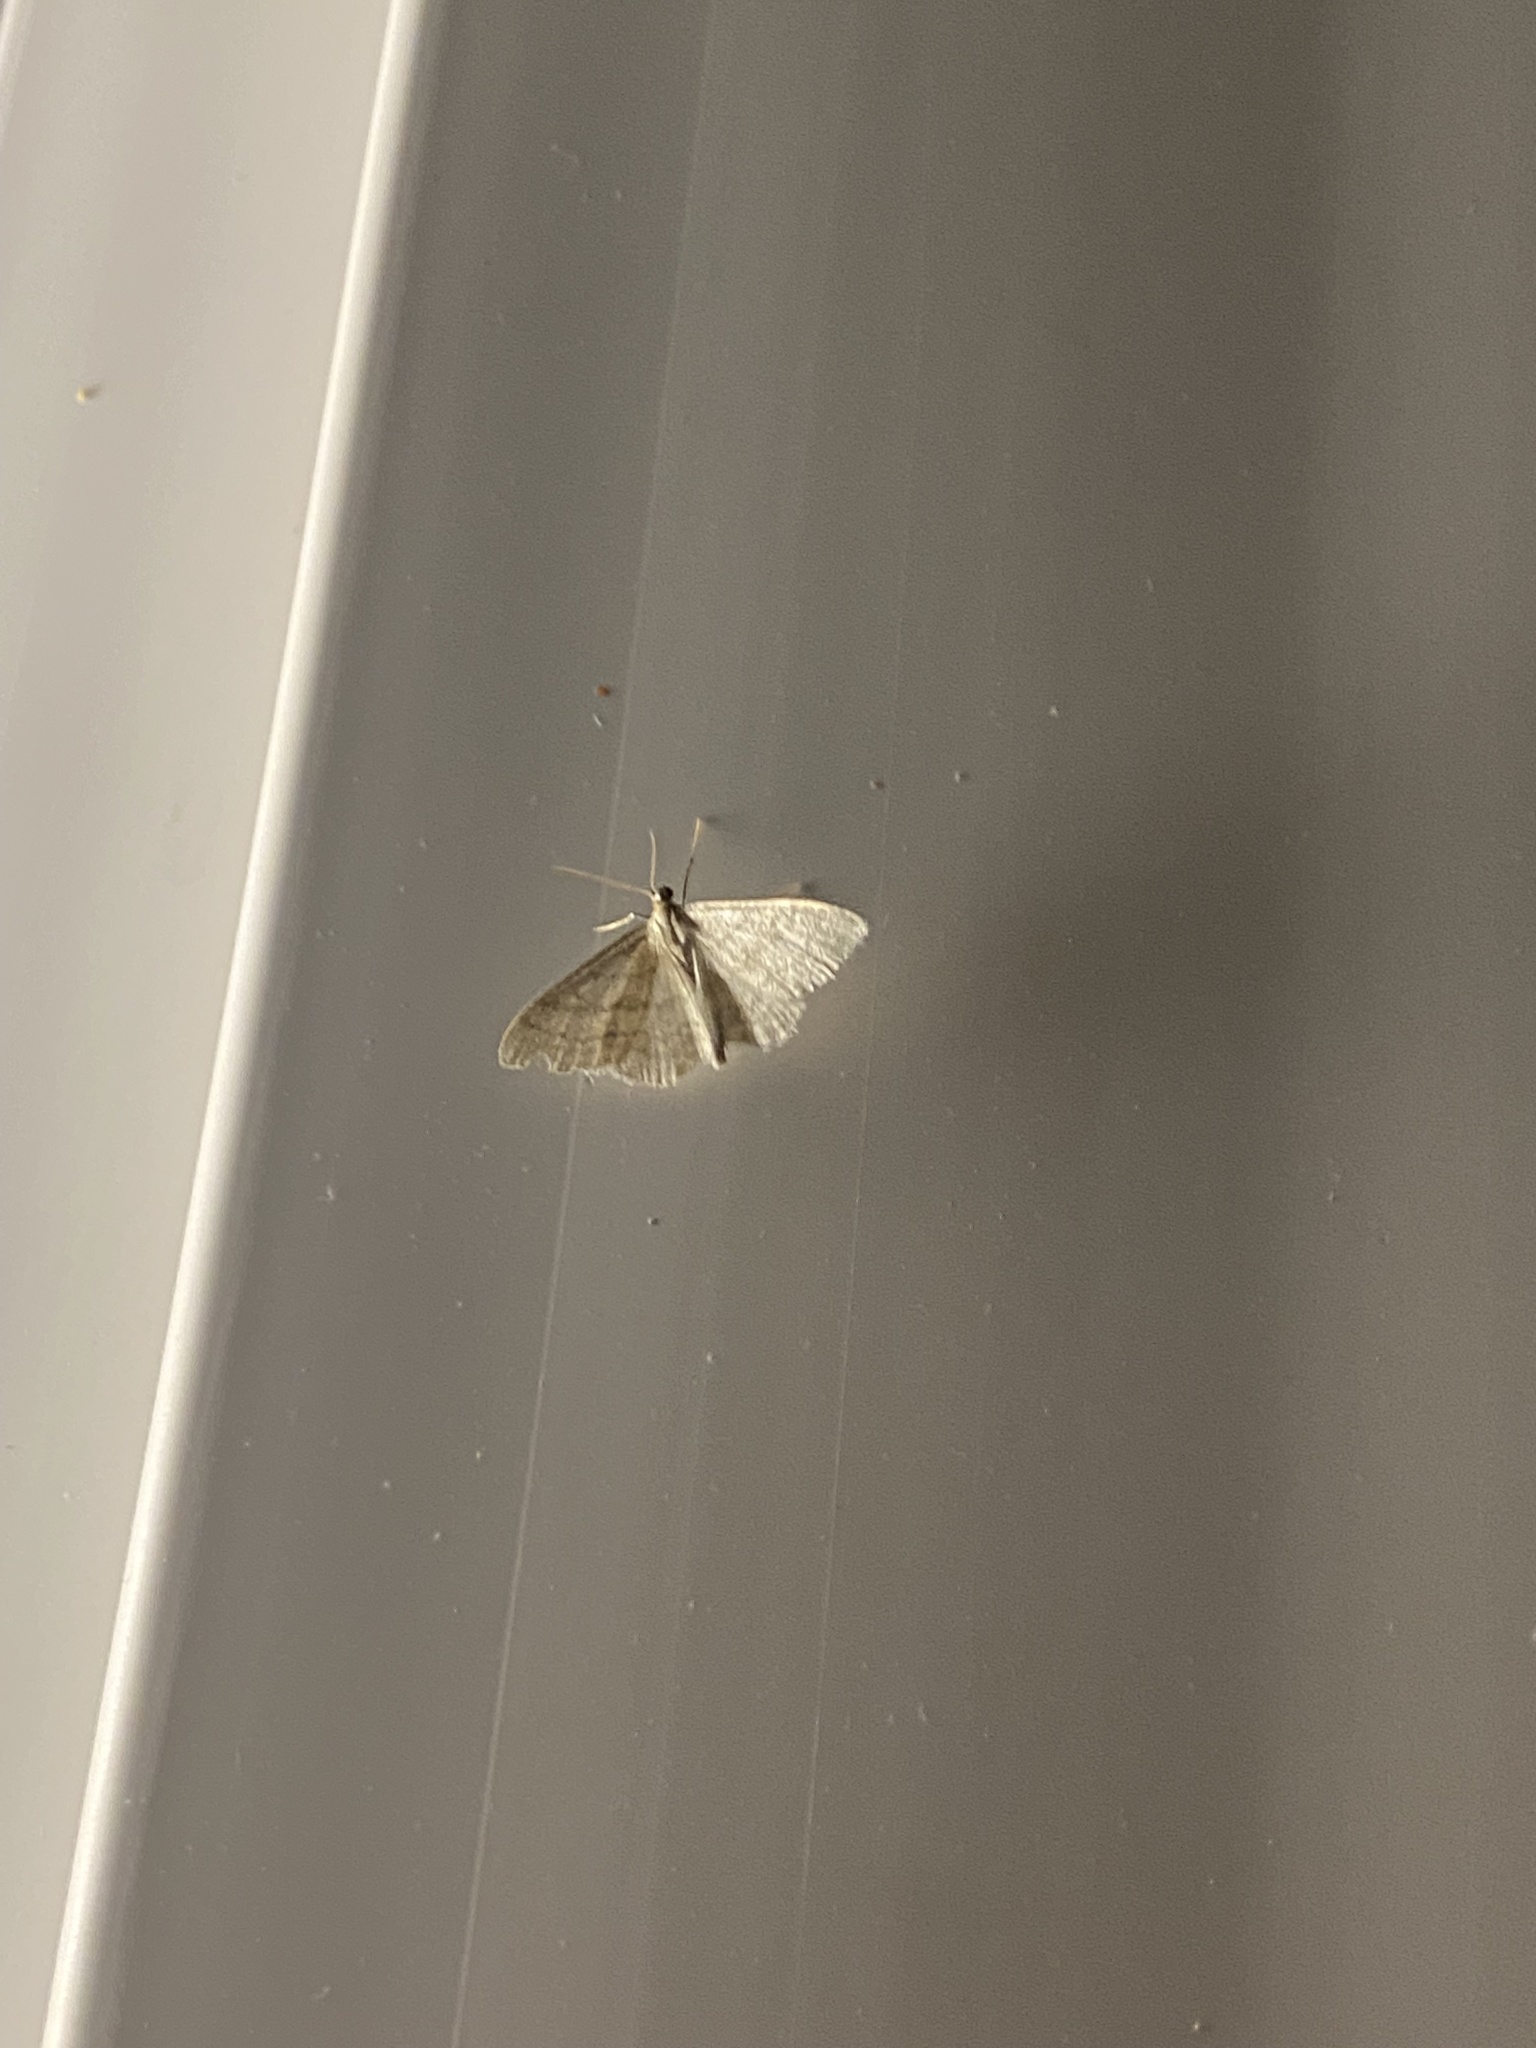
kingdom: Animalia
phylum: Arthropoda
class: Insecta
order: Lepidoptera
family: Geometridae
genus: Idaea
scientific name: Idaea subsericeata
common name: Satin wave
